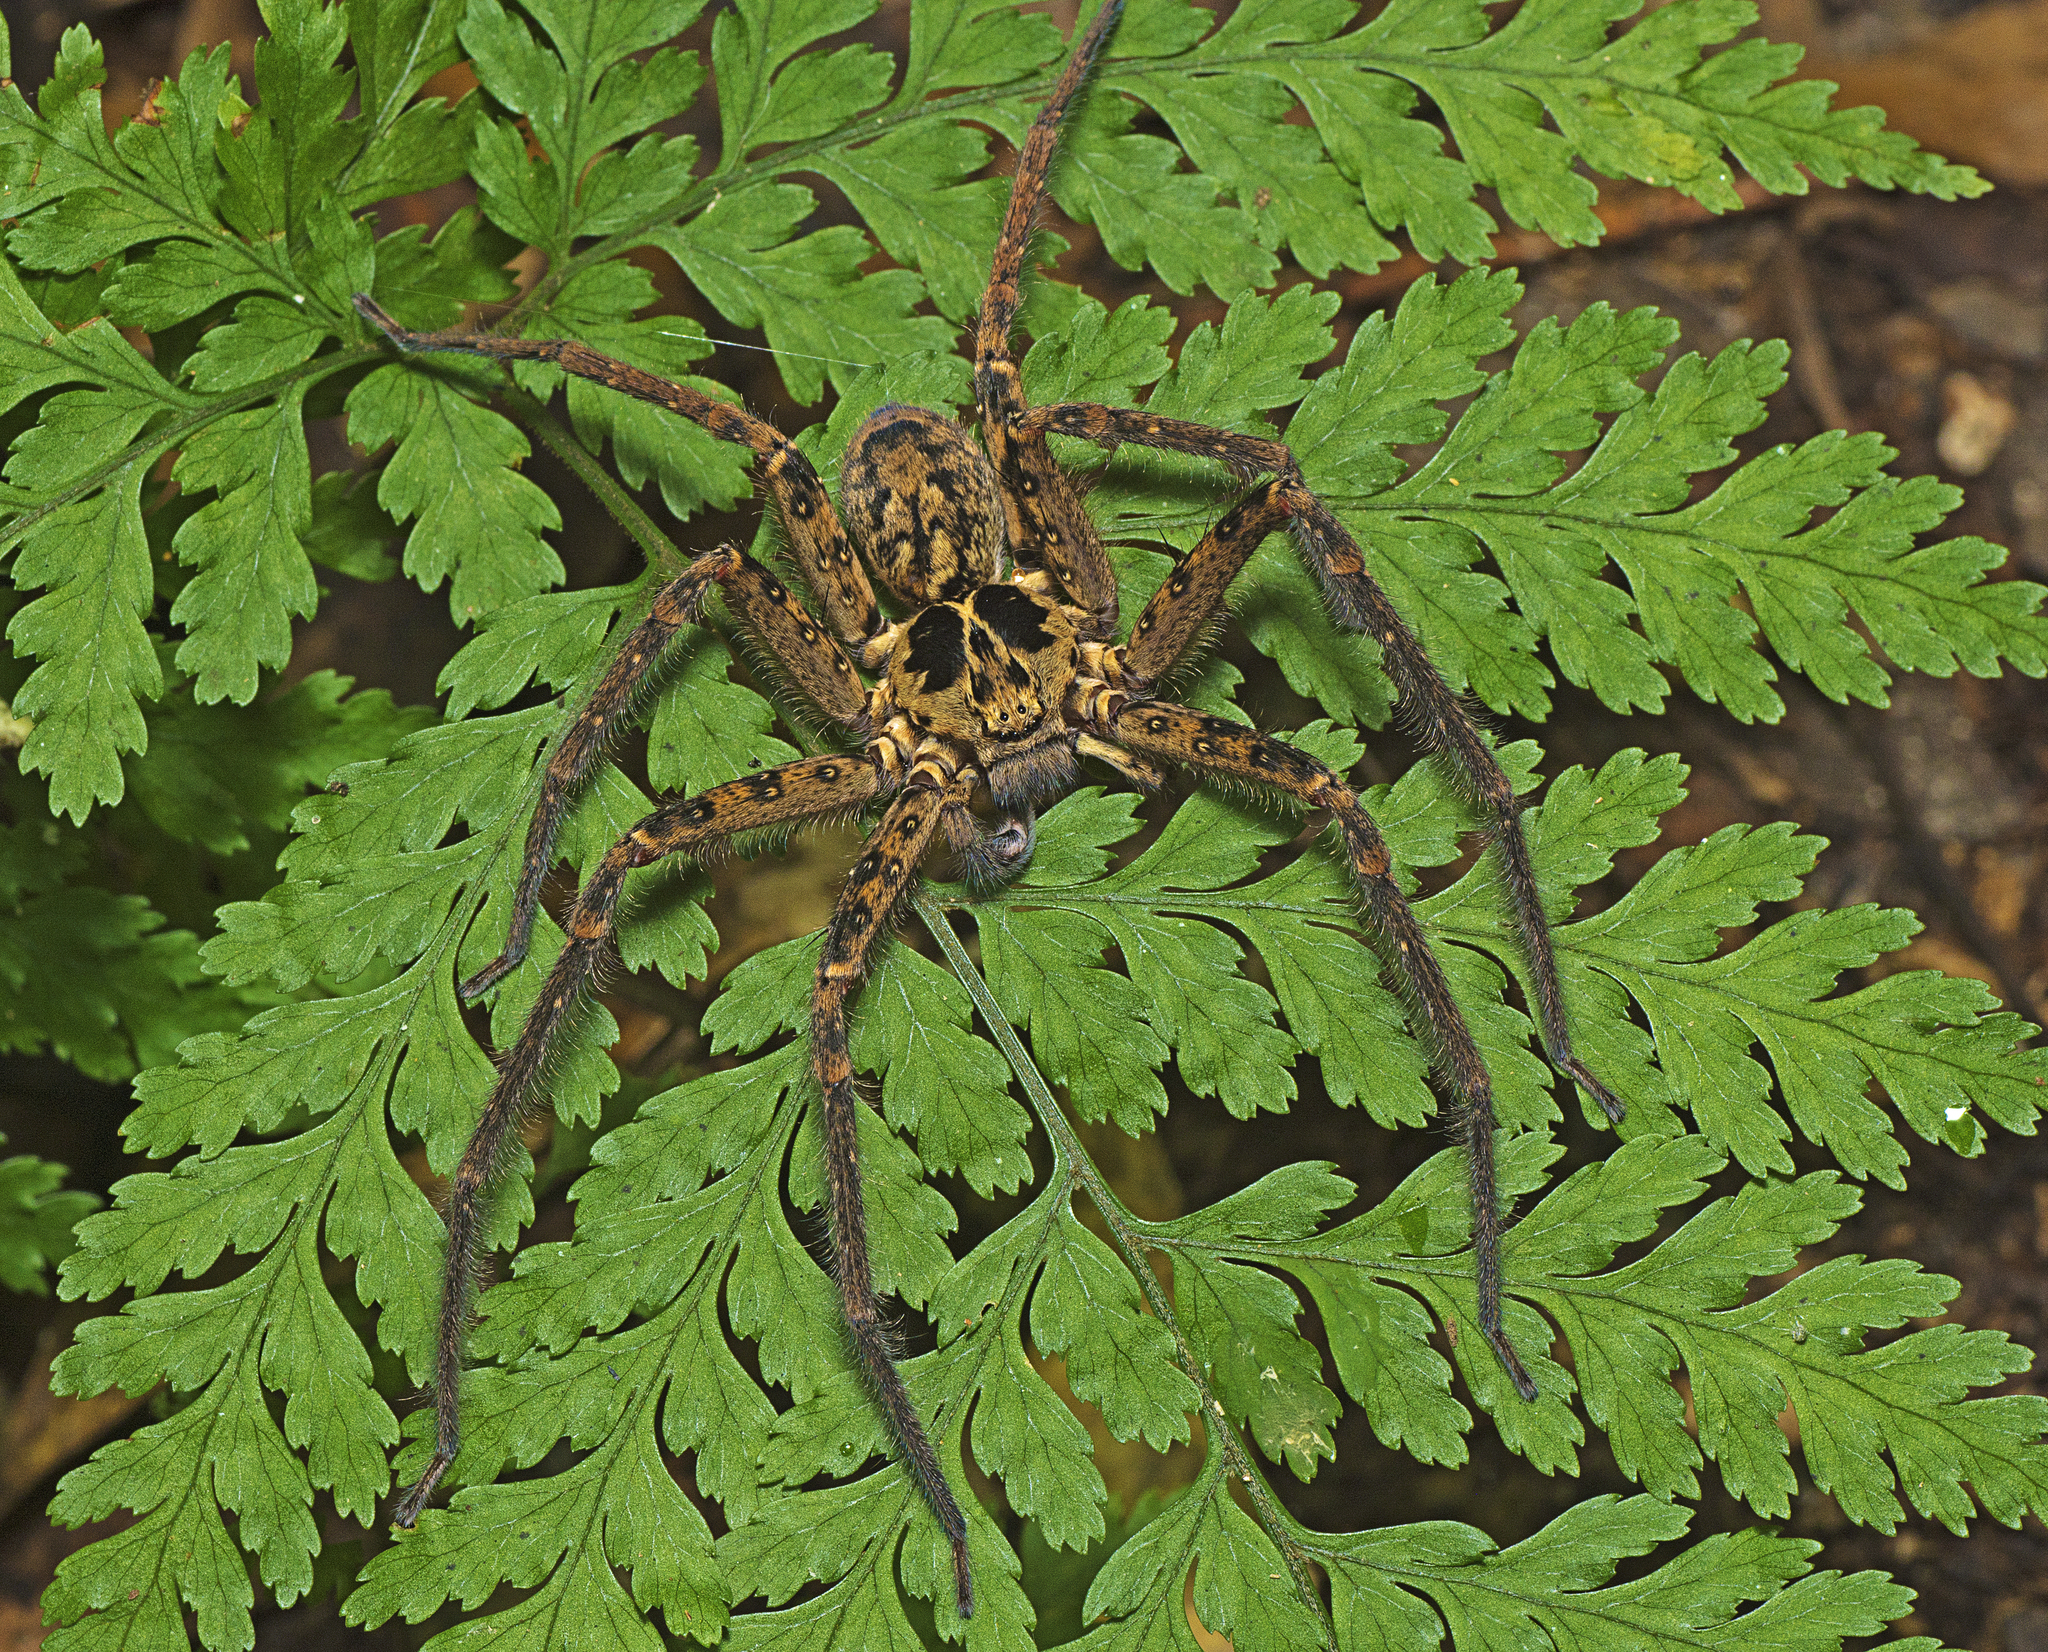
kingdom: Animalia
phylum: Arthropoda
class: Arachnida
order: Araneae
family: Sparassidae
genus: Heteropoda
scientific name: Heteropoda hillerae
